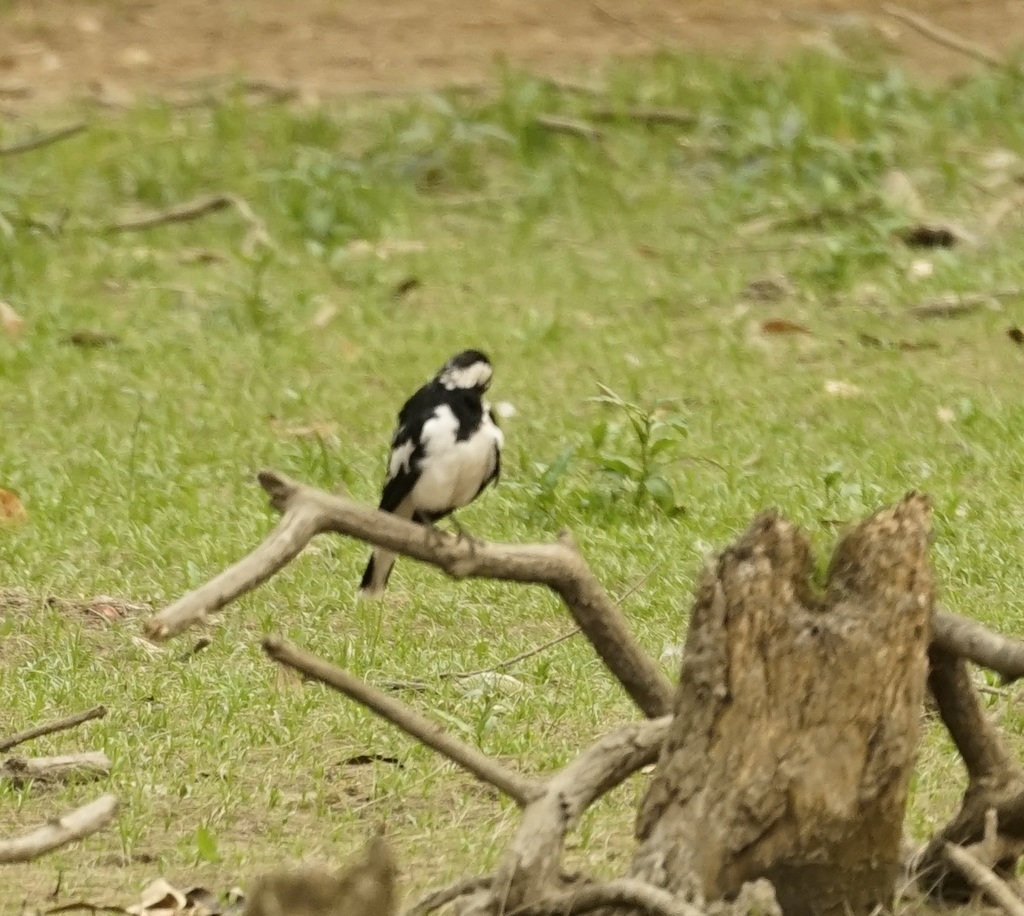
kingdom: Animalia
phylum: Chordata
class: Aves
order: Passeriformes
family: Monarchidae
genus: Grallina
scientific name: Grallina cyanoleuca
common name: Magpie-lark
